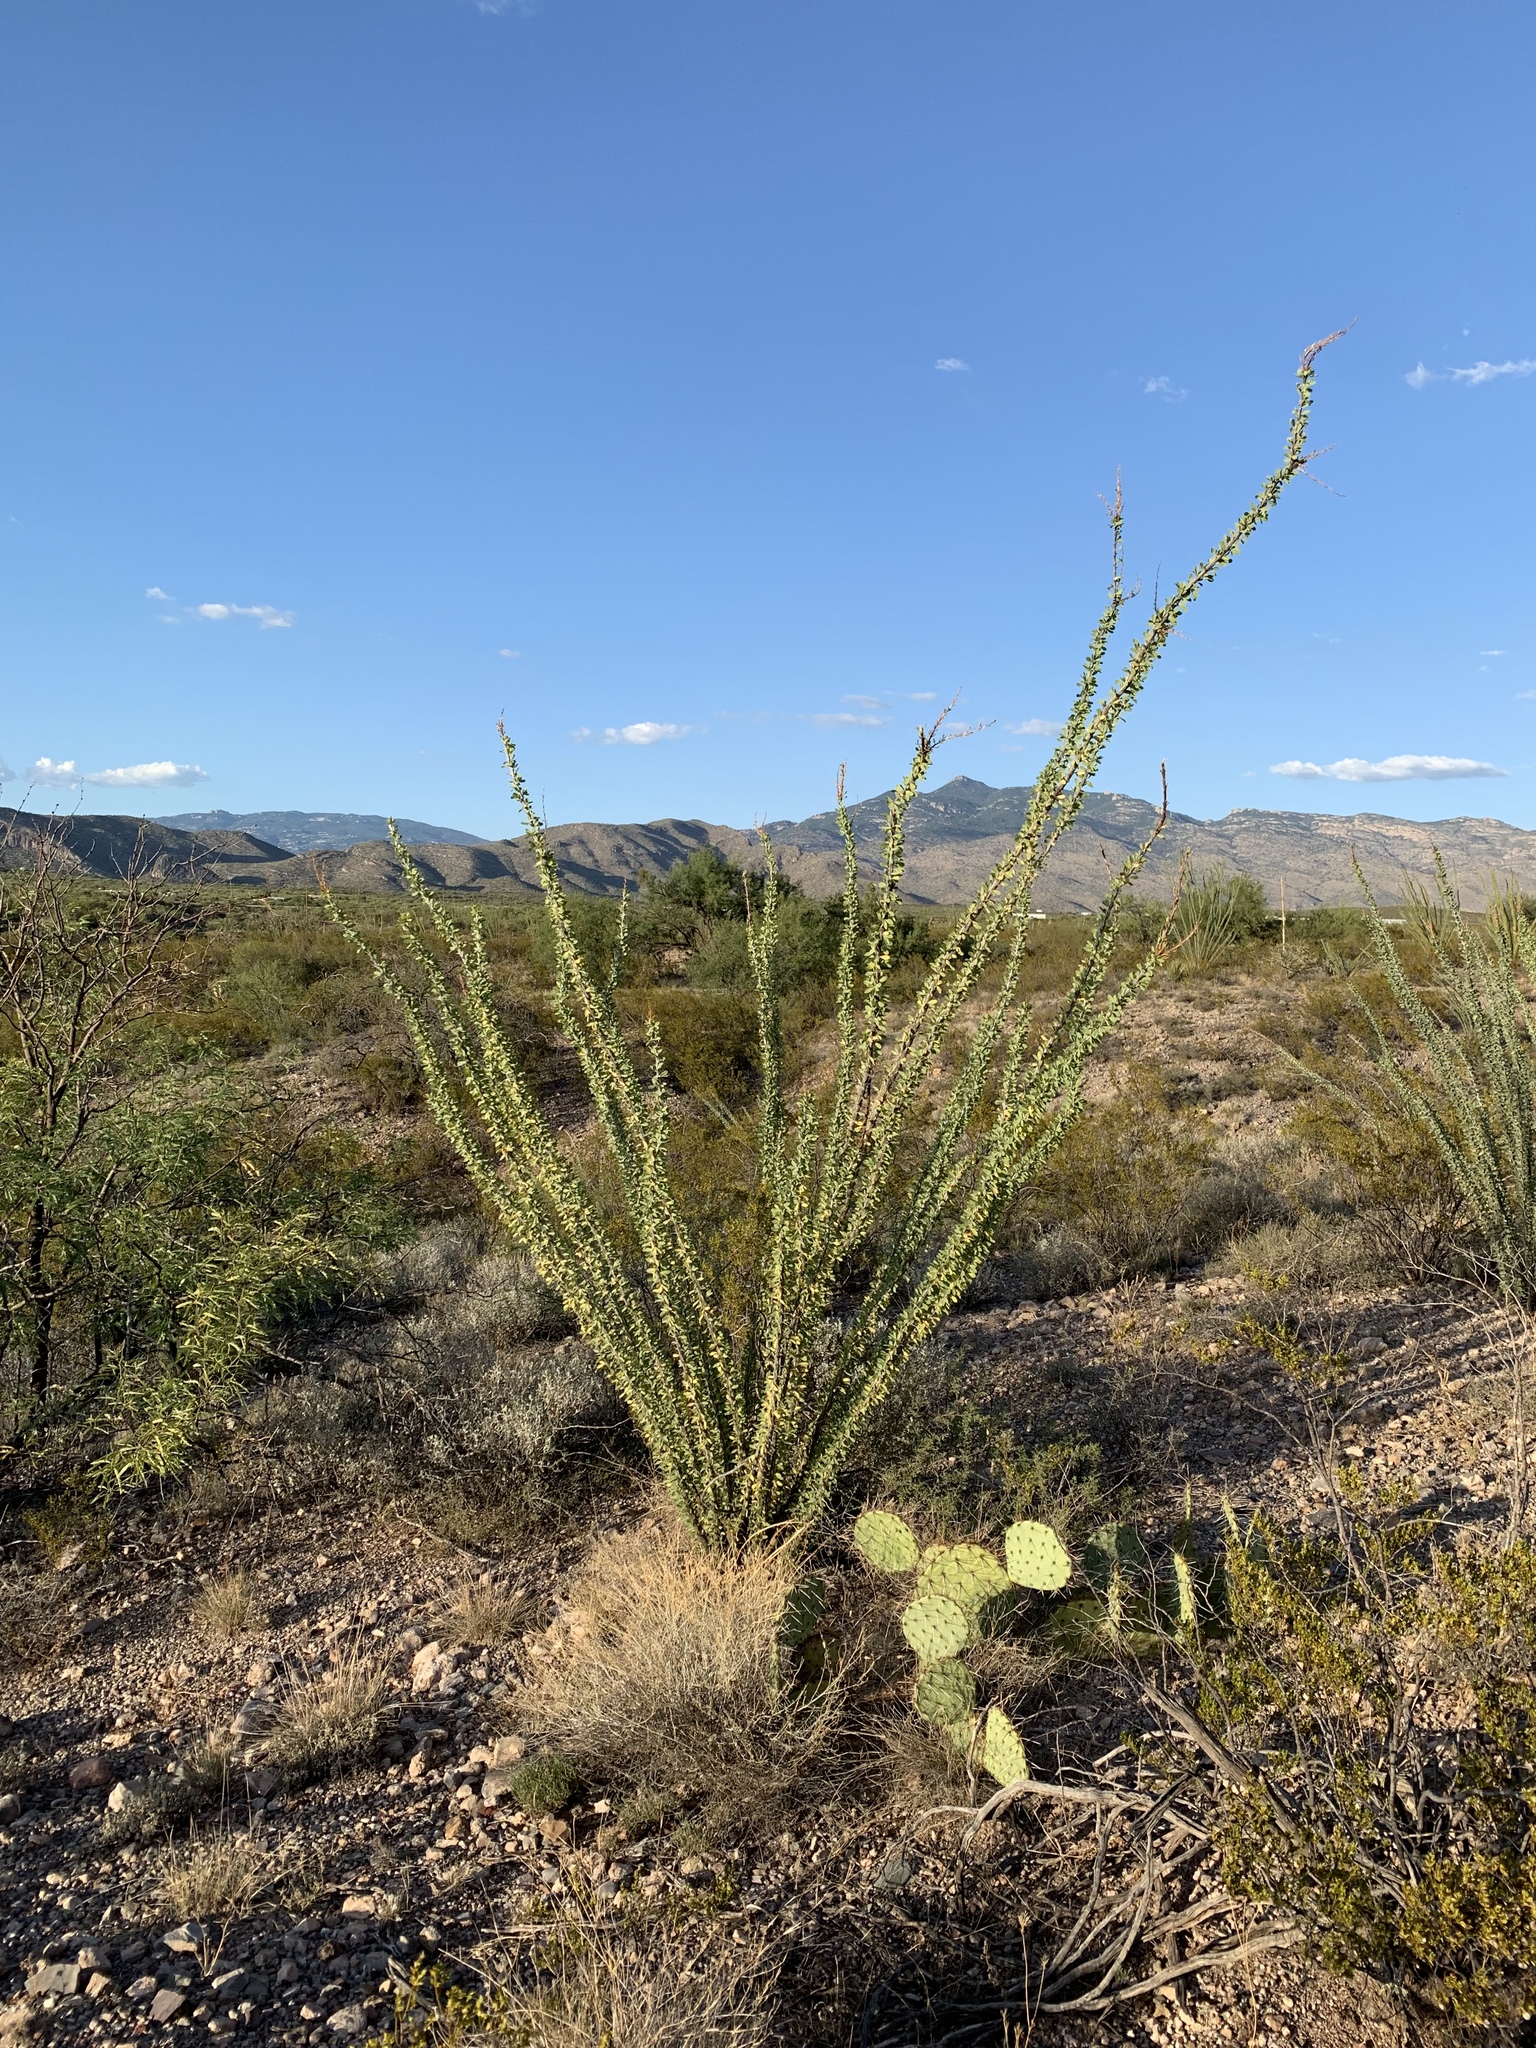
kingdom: Plantae
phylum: Tracheophyta
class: Magnoliopsida
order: Ericales
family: Fouquieriaceae
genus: Fouquieria
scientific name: Fouquieria splendens
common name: Vine-cactus
